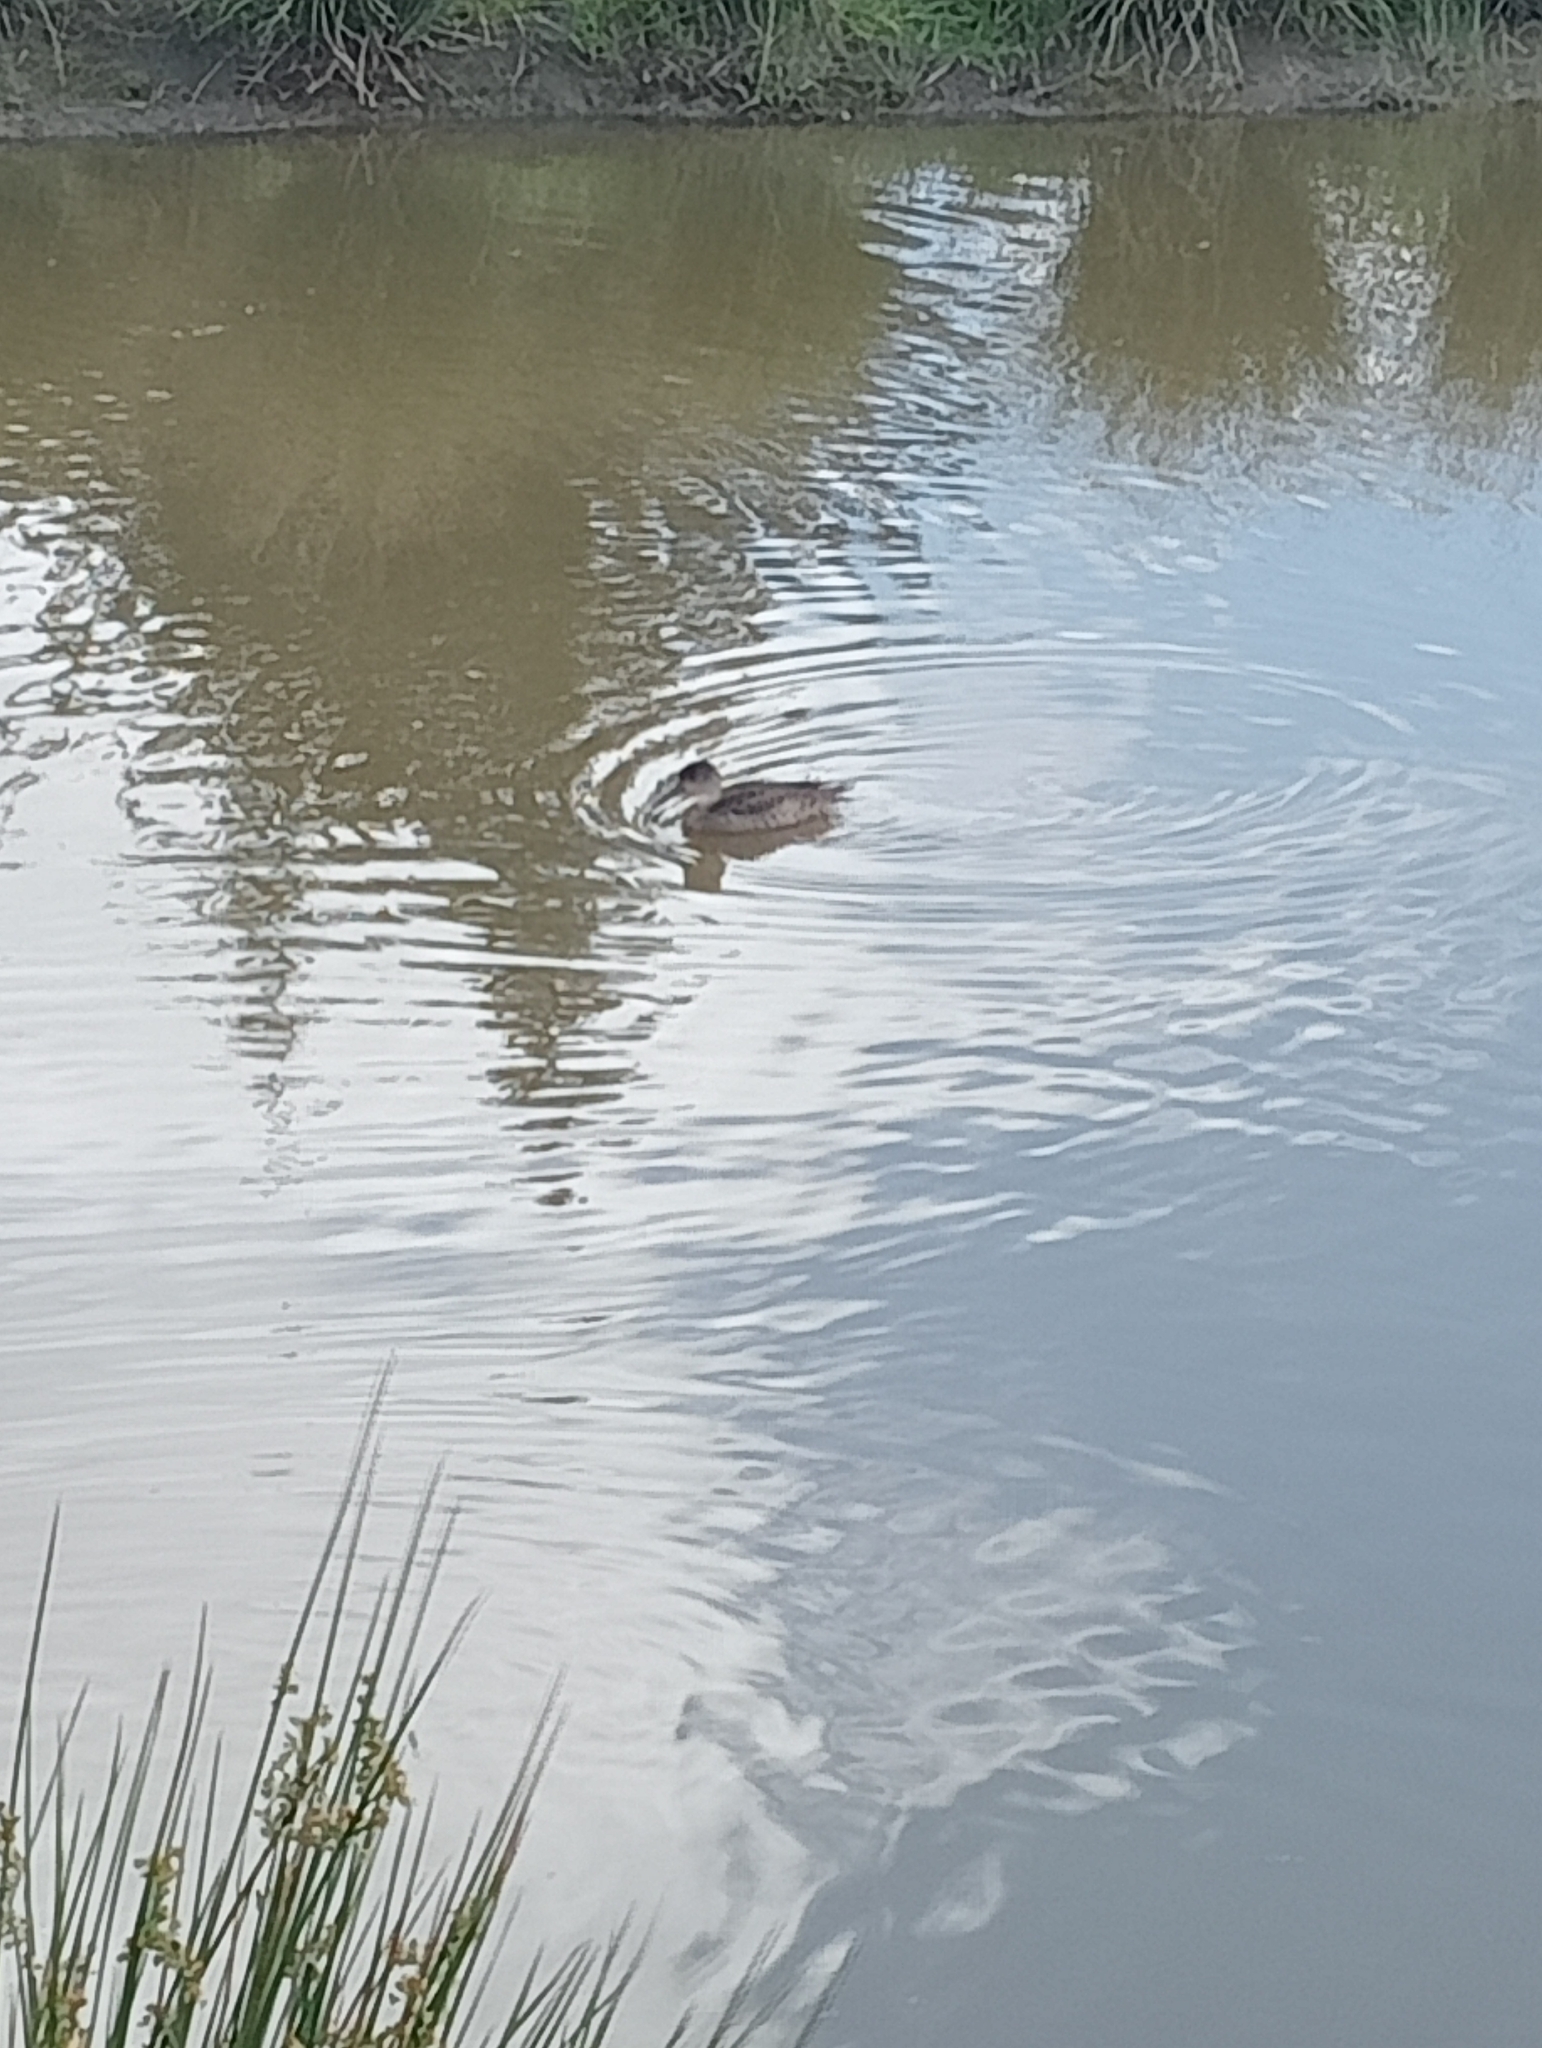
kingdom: Animalia
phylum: Chordata
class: Aves
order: Anseriformes
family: Anatidae
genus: Anas
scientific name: Anas gracilis
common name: Grey teal
